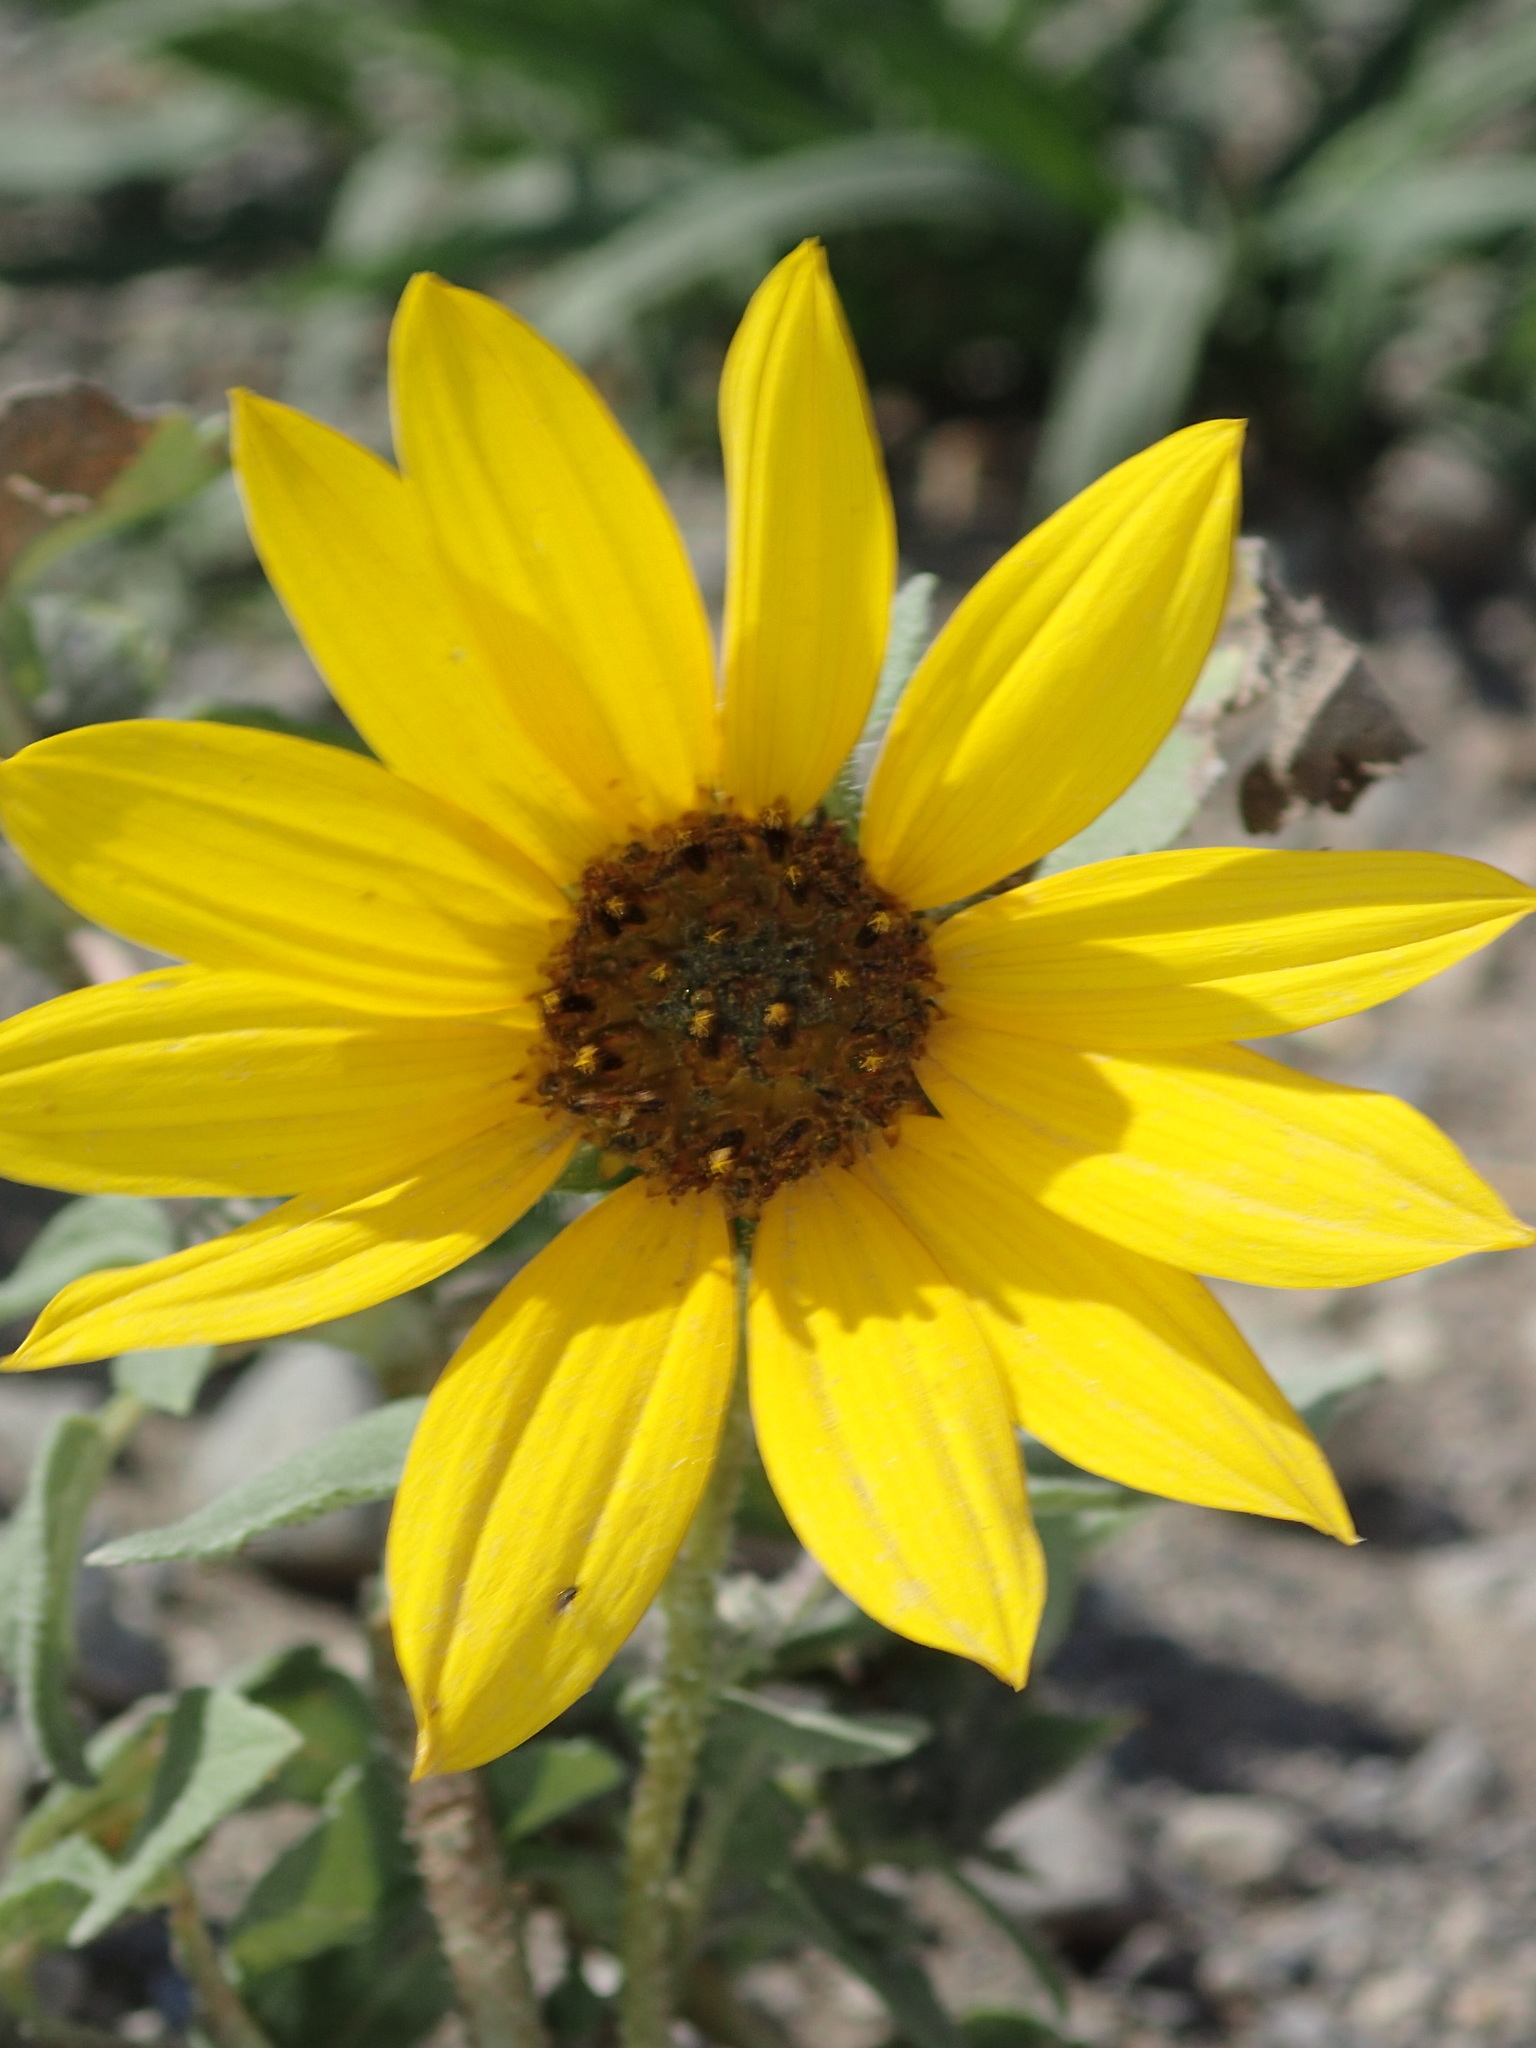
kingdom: Plantae
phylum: Tracheophyta
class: Magnoliopsida
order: Asterales
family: Asteraceae
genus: Helianthus
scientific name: Helianthus annuus
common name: Sunflower
